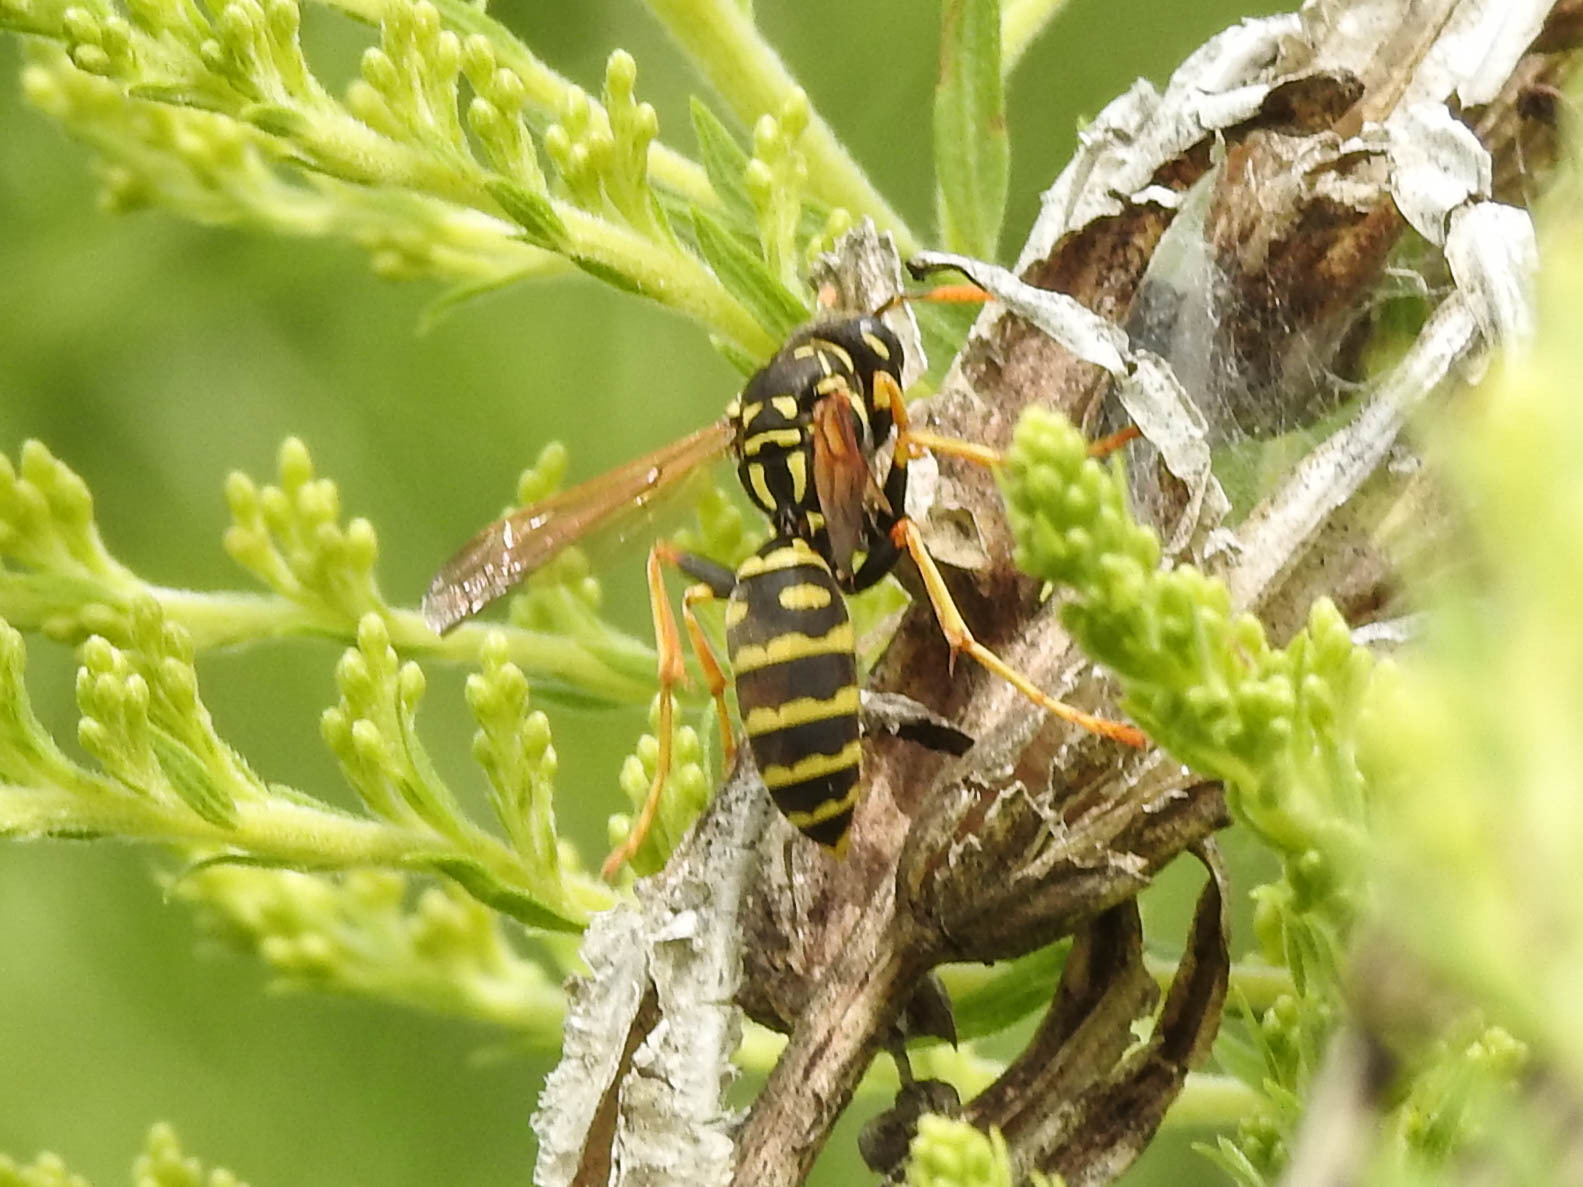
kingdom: Animalia
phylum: Arthropoda
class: Insecta
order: Hymenoptera
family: Eumenidae
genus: Polistes
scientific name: Polistes dominula
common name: Paper wasp
